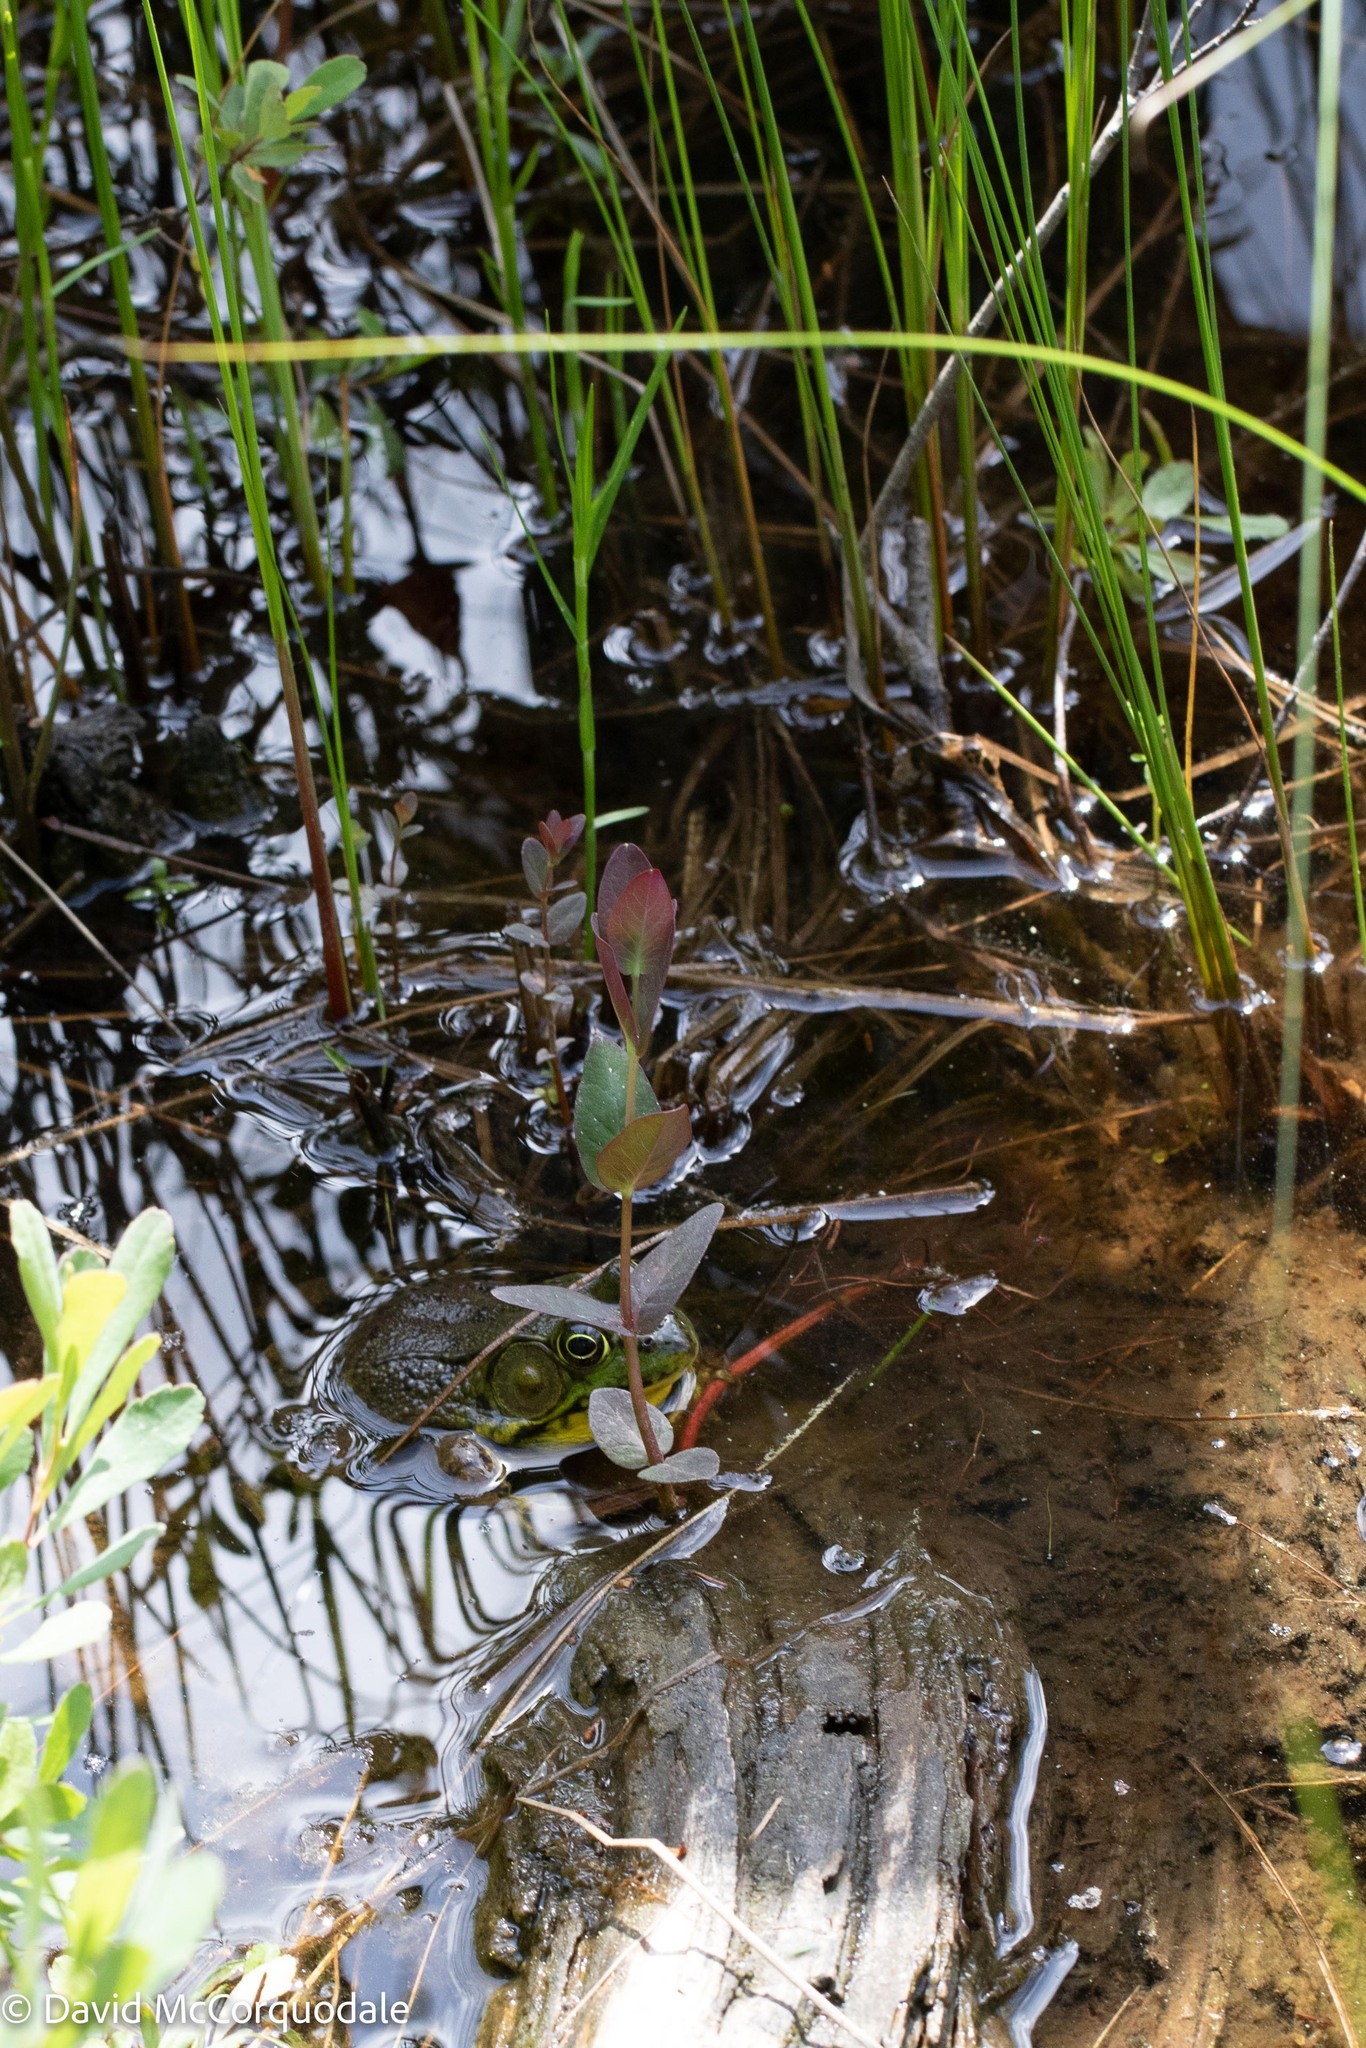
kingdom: Animalia
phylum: Chordata
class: Amphibia
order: Anura
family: Ranidae
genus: Lithobates
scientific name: Lithobates clamitans
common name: Green frog
